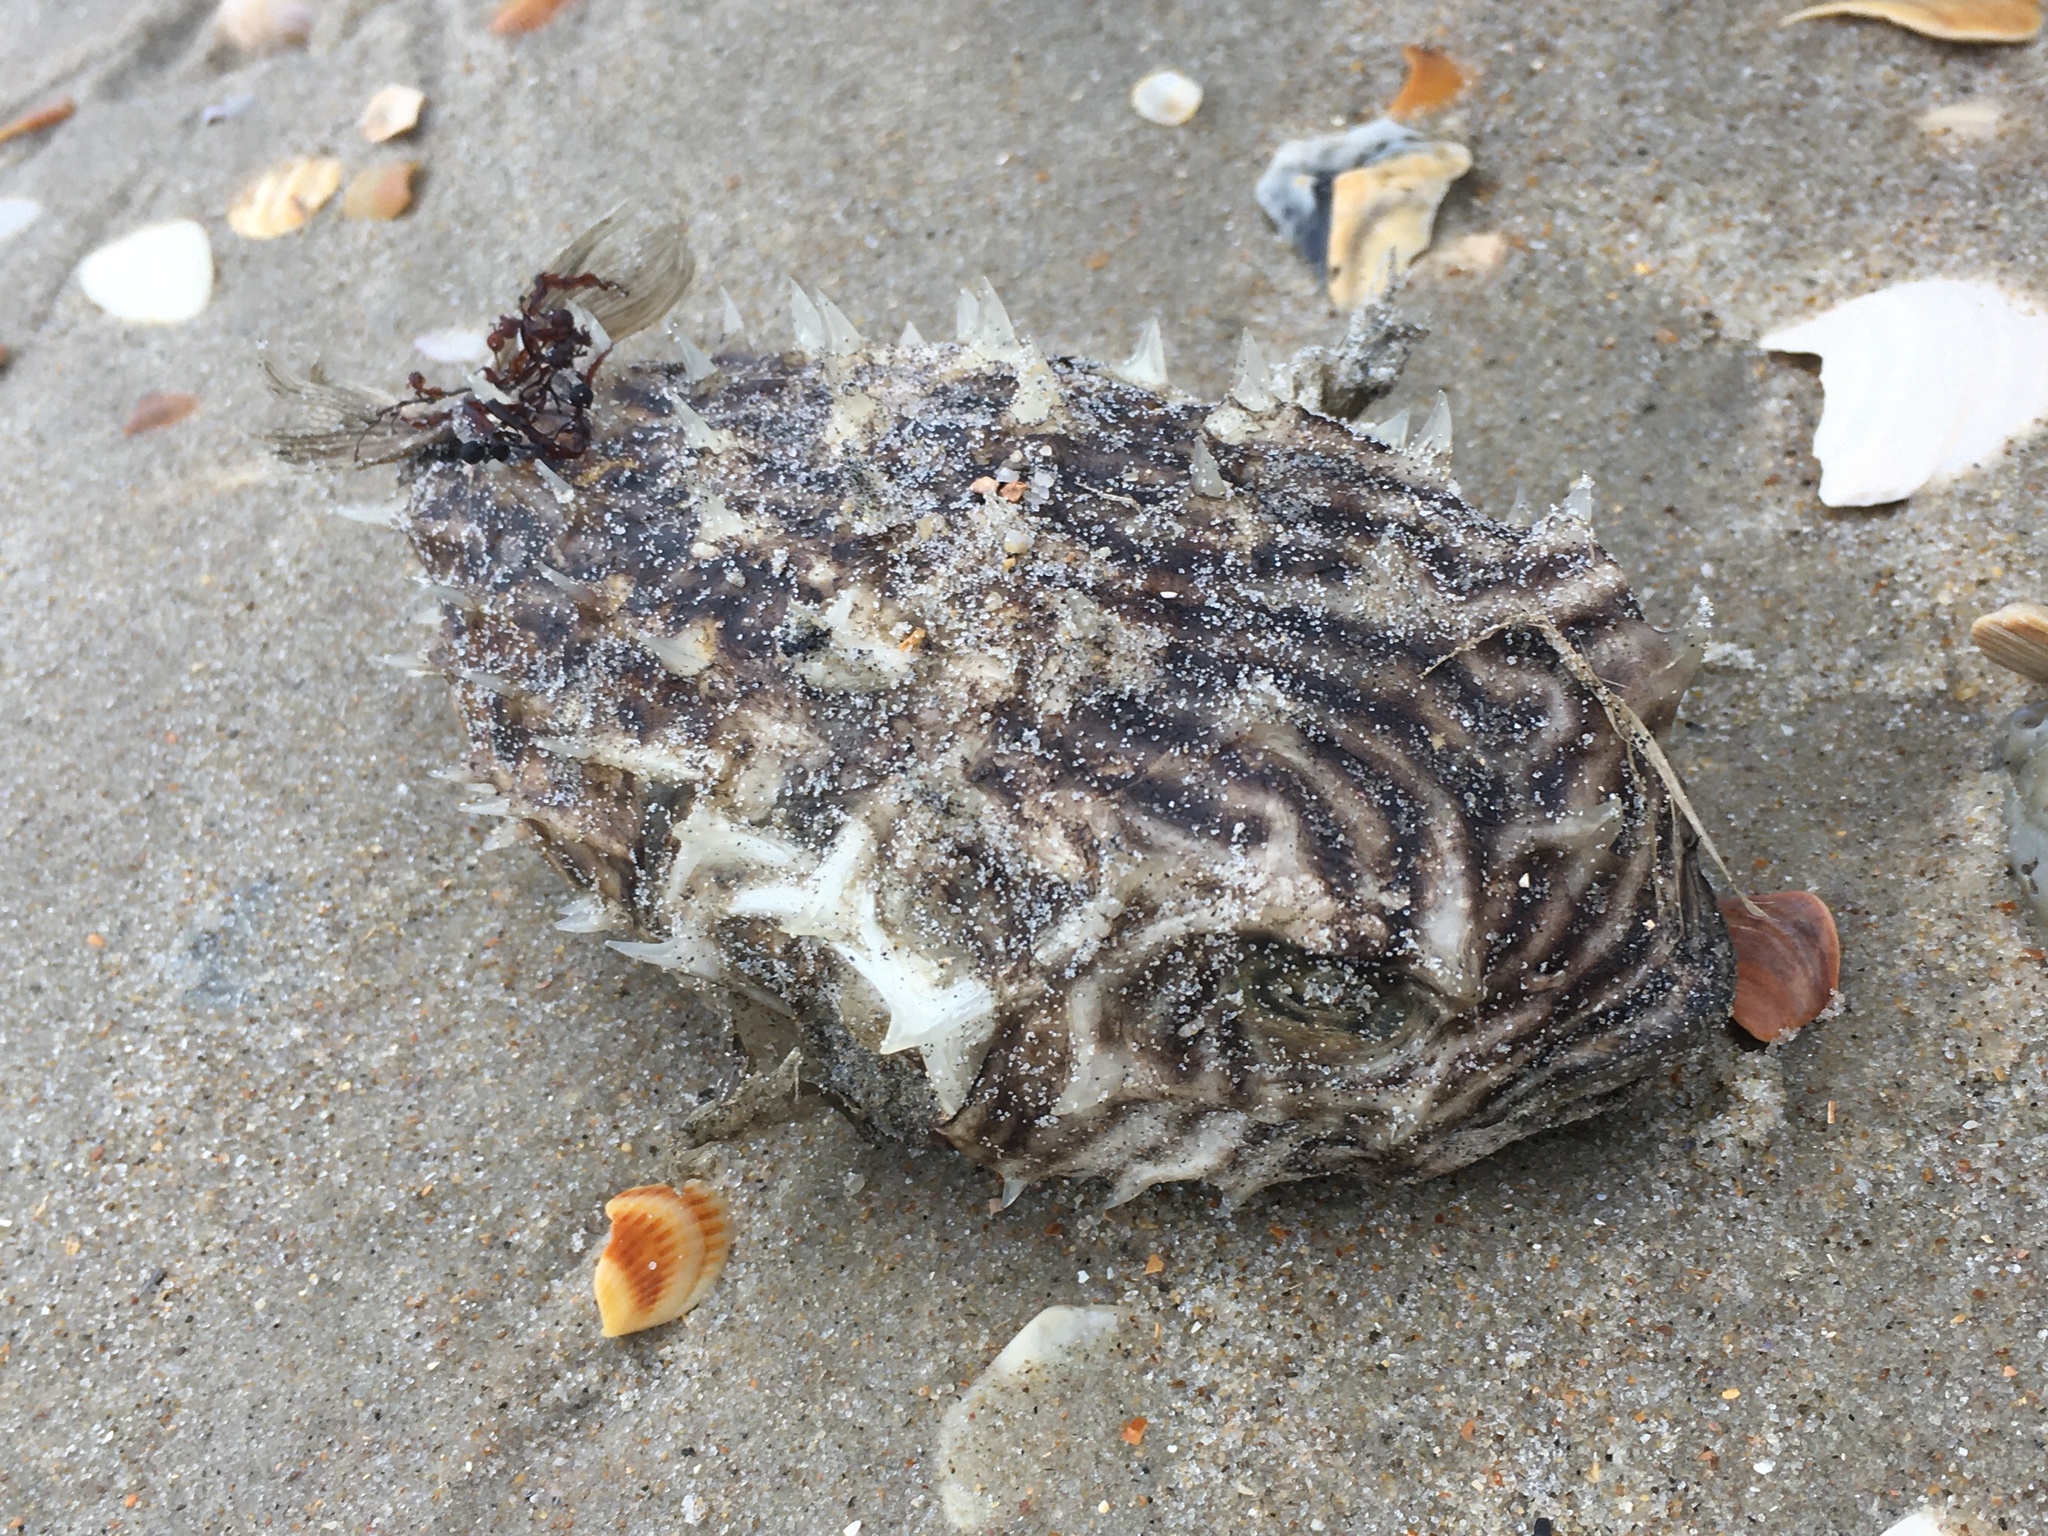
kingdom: Animalia
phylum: Chordata
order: Tetraodontiformes
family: Diodontidae
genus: Chilomycterus
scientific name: Chilomycterus schoepfii
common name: Striped burrfish
